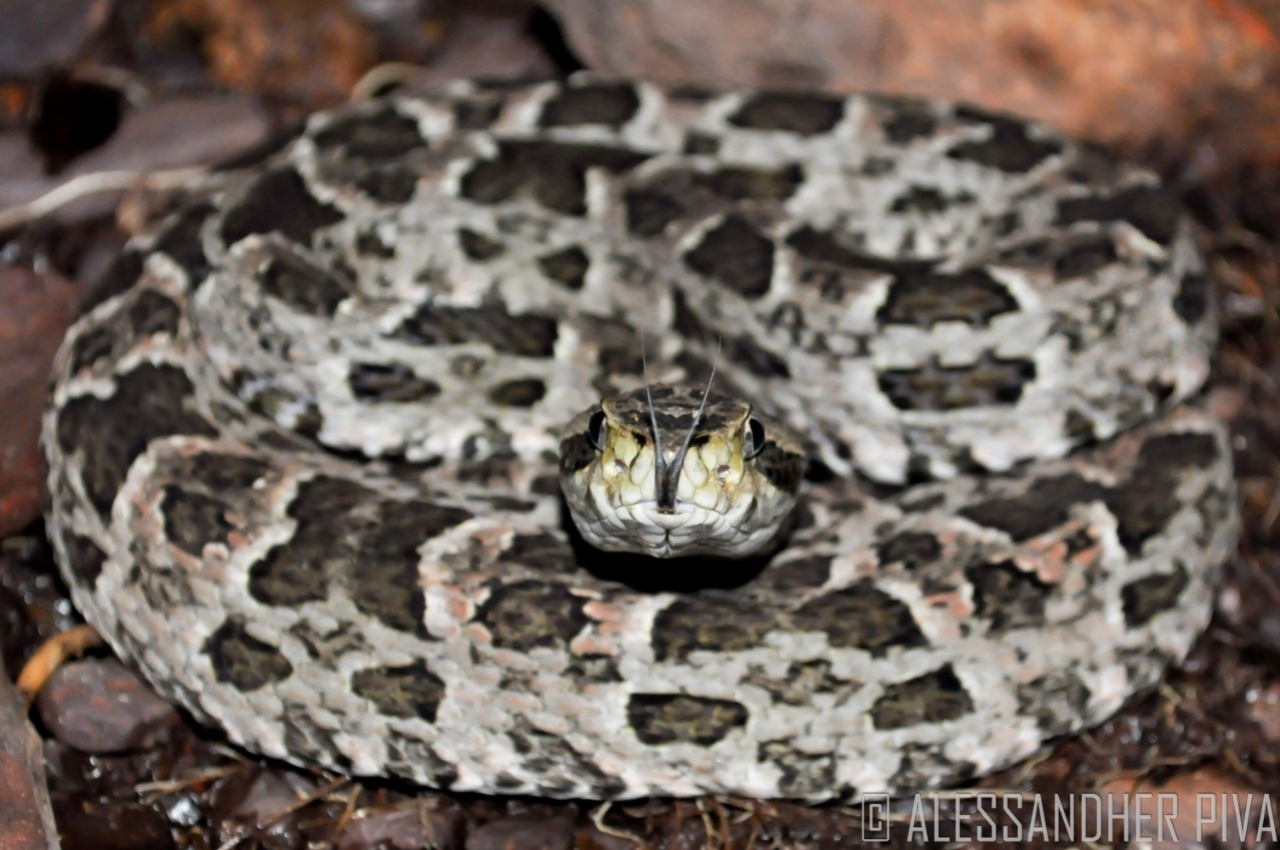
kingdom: Animalia
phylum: Chordata
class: Squamata
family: Viperidae
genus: Bothrops
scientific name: Bothrops mattogrossensis
